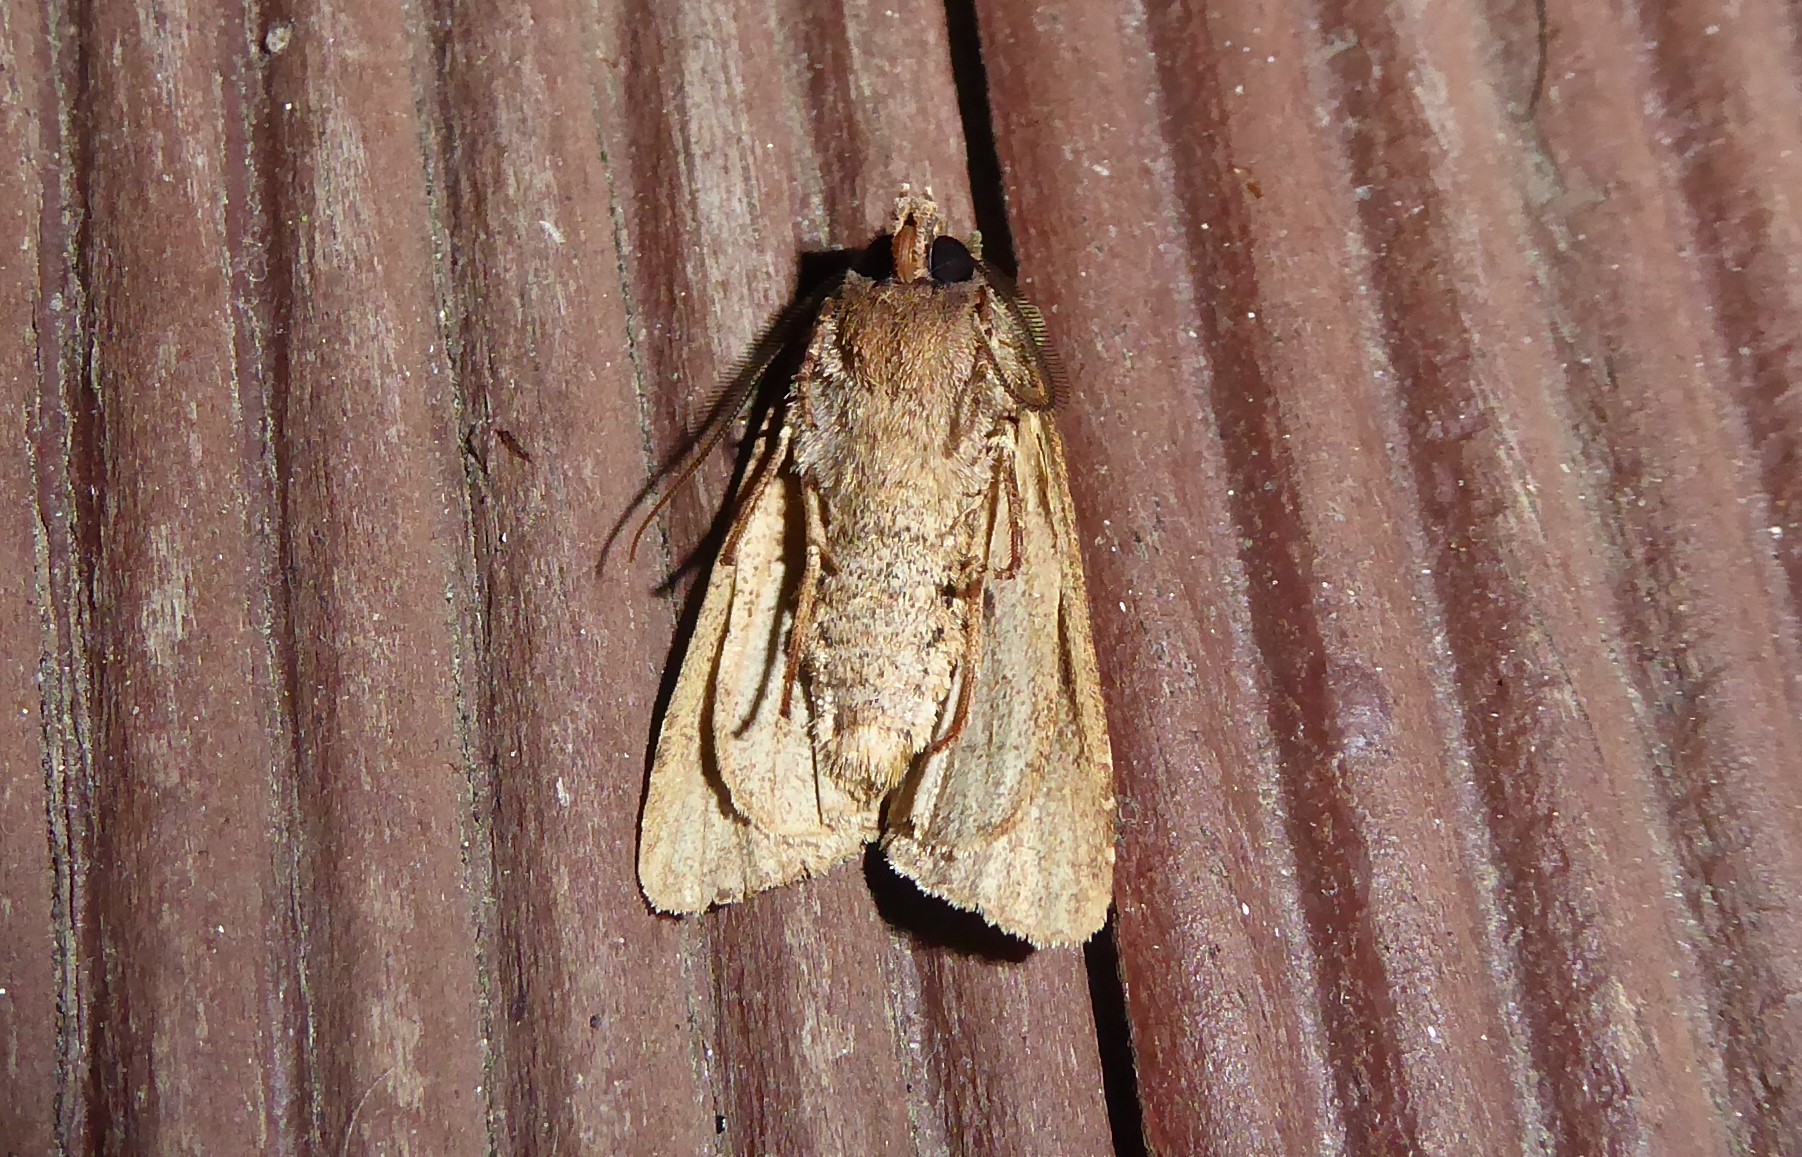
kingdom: Animalia
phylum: Arthropoda
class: Insecta
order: Lepidoptera
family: Noctuidae
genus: Ichneutica
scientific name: Ichneutica
